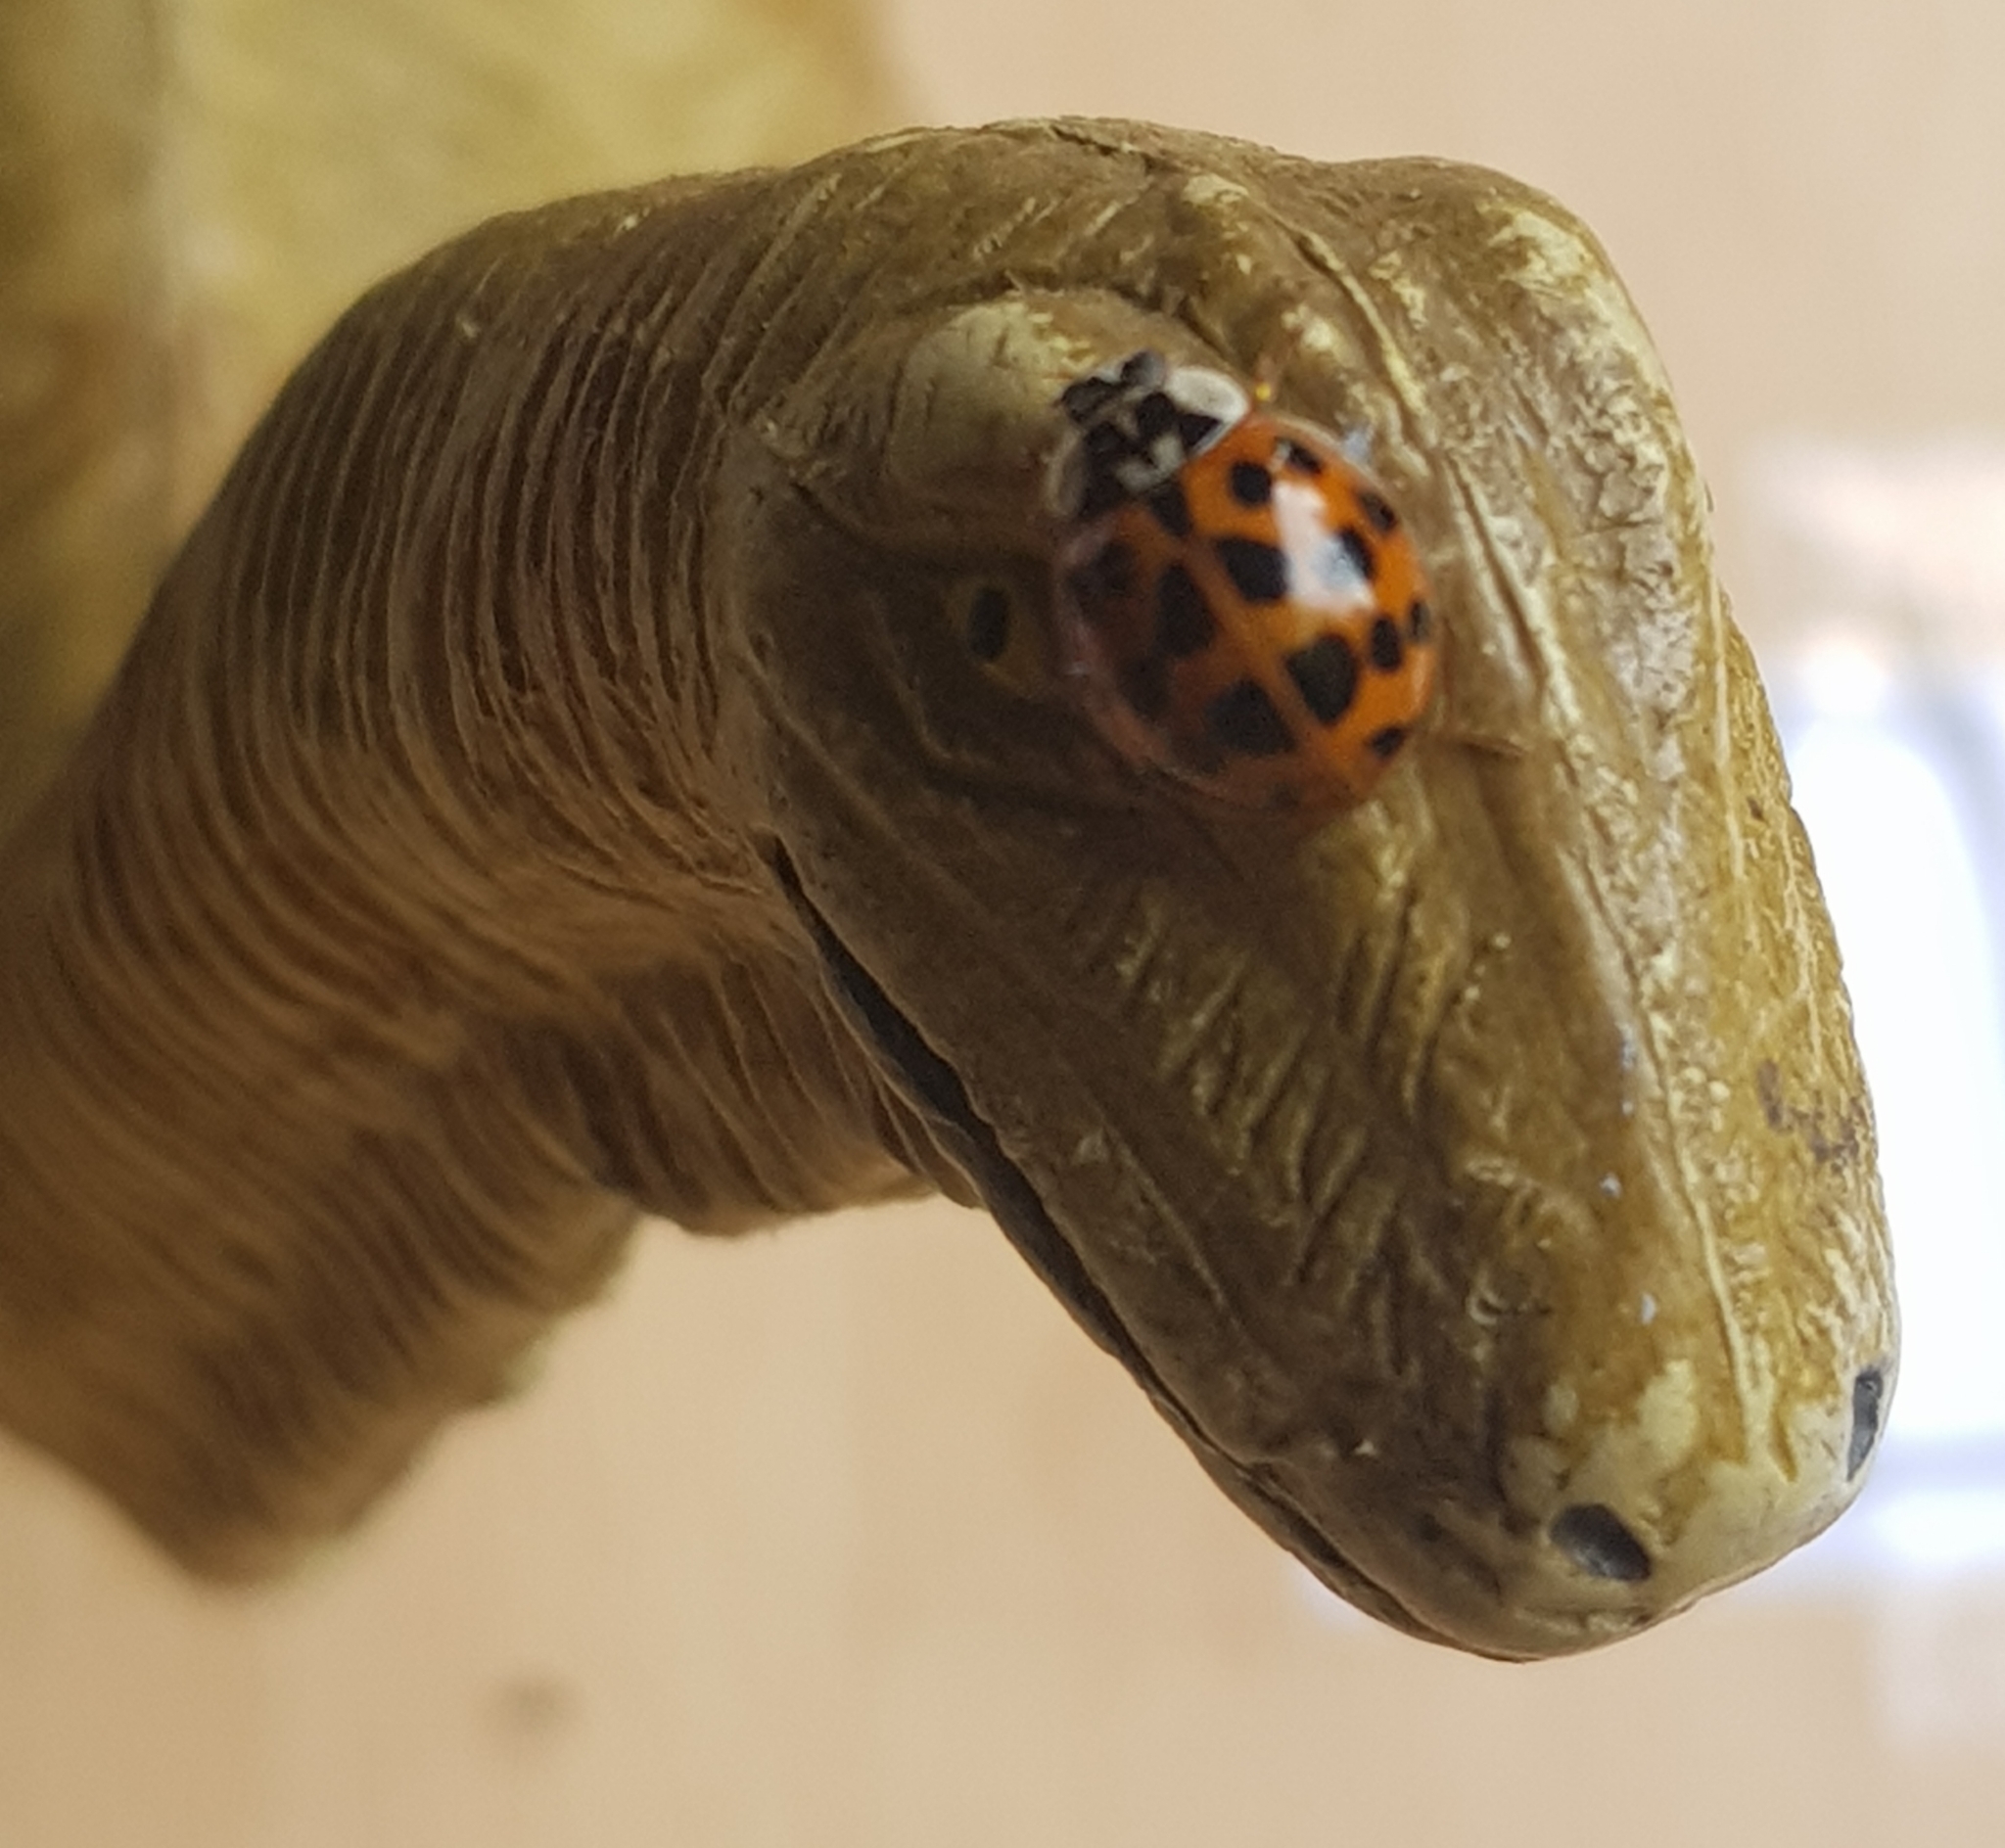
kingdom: Animalia
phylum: Arthropoda
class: Insecta
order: Coleoptera
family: Coccinellidae
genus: Harmonia
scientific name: Harmonia axyridis
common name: Harlequin ladybird
